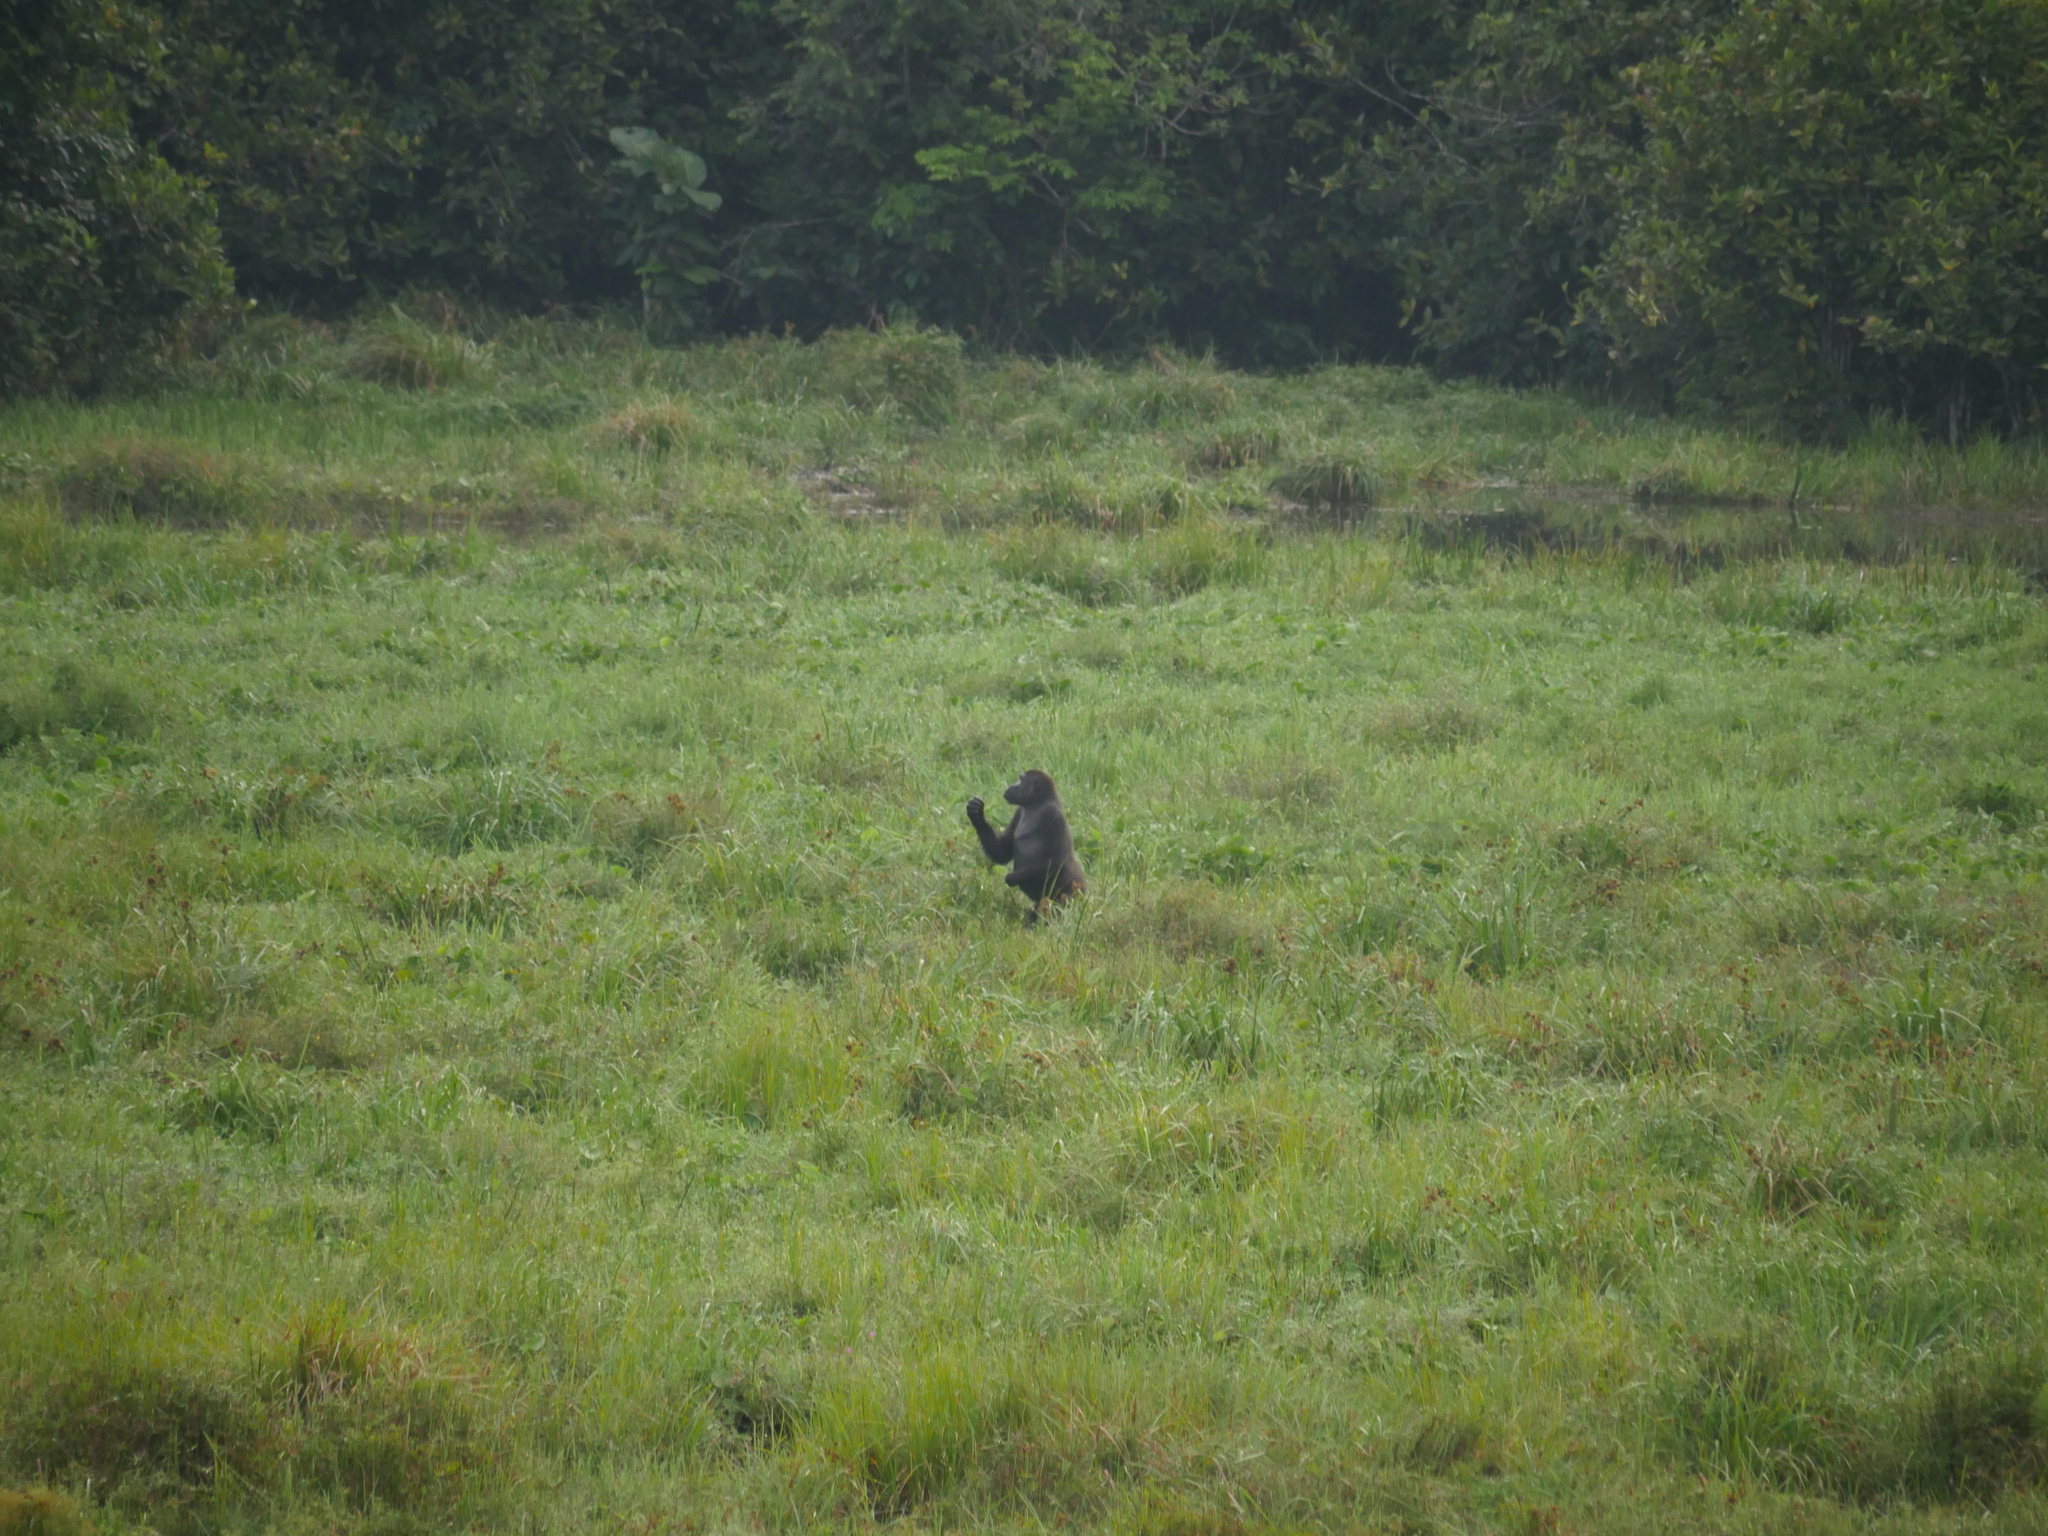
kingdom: Animalia
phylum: Chordata
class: Mammalia
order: Primates
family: Hominidae
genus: Gorilla
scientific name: Gorilla gorilla
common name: Western gorilla
